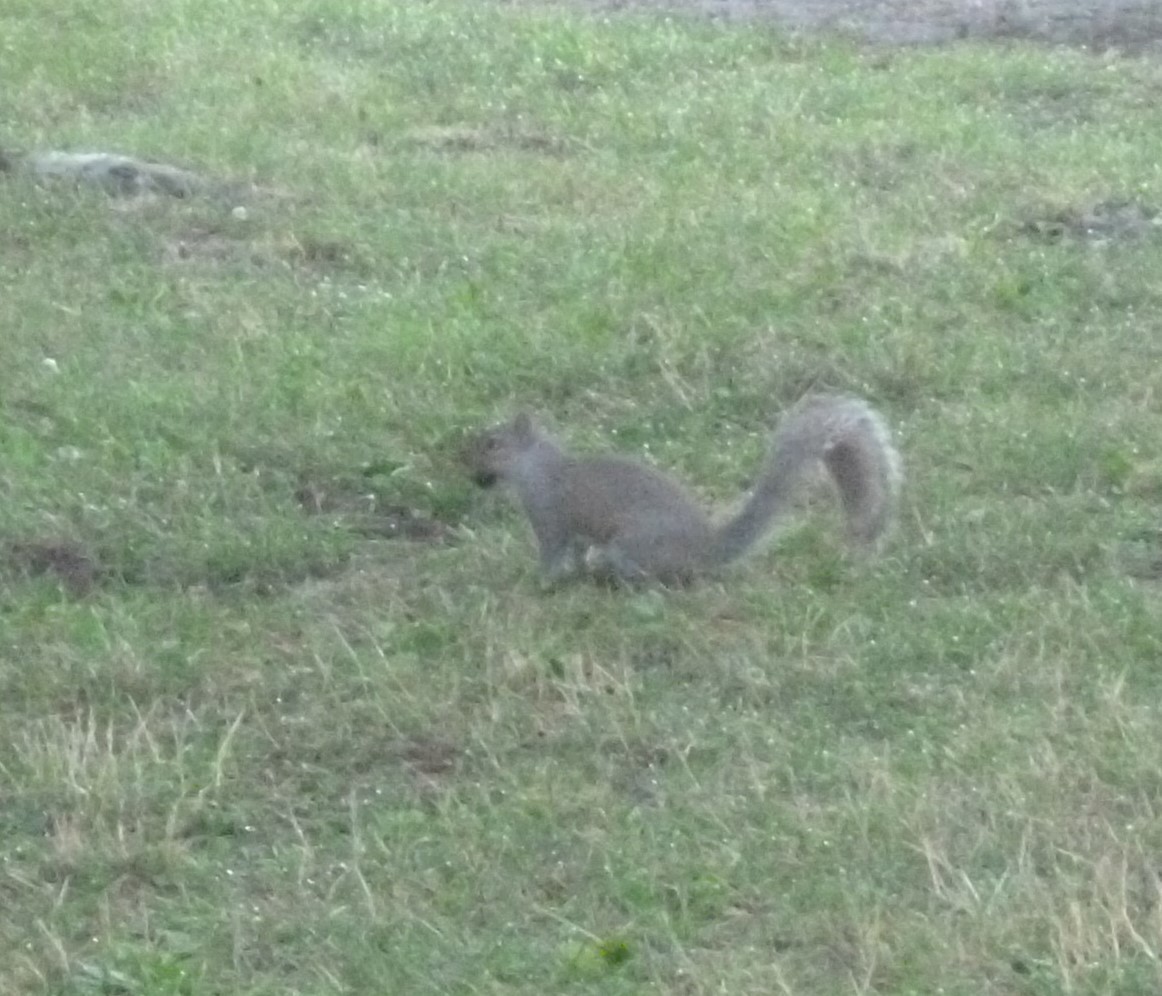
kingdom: Animalia
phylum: Chordata
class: Mammalia
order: Rodentia
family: Sciuridae
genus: Sciurus
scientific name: Sciurus carolinensis
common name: Eastern gray squirrel
